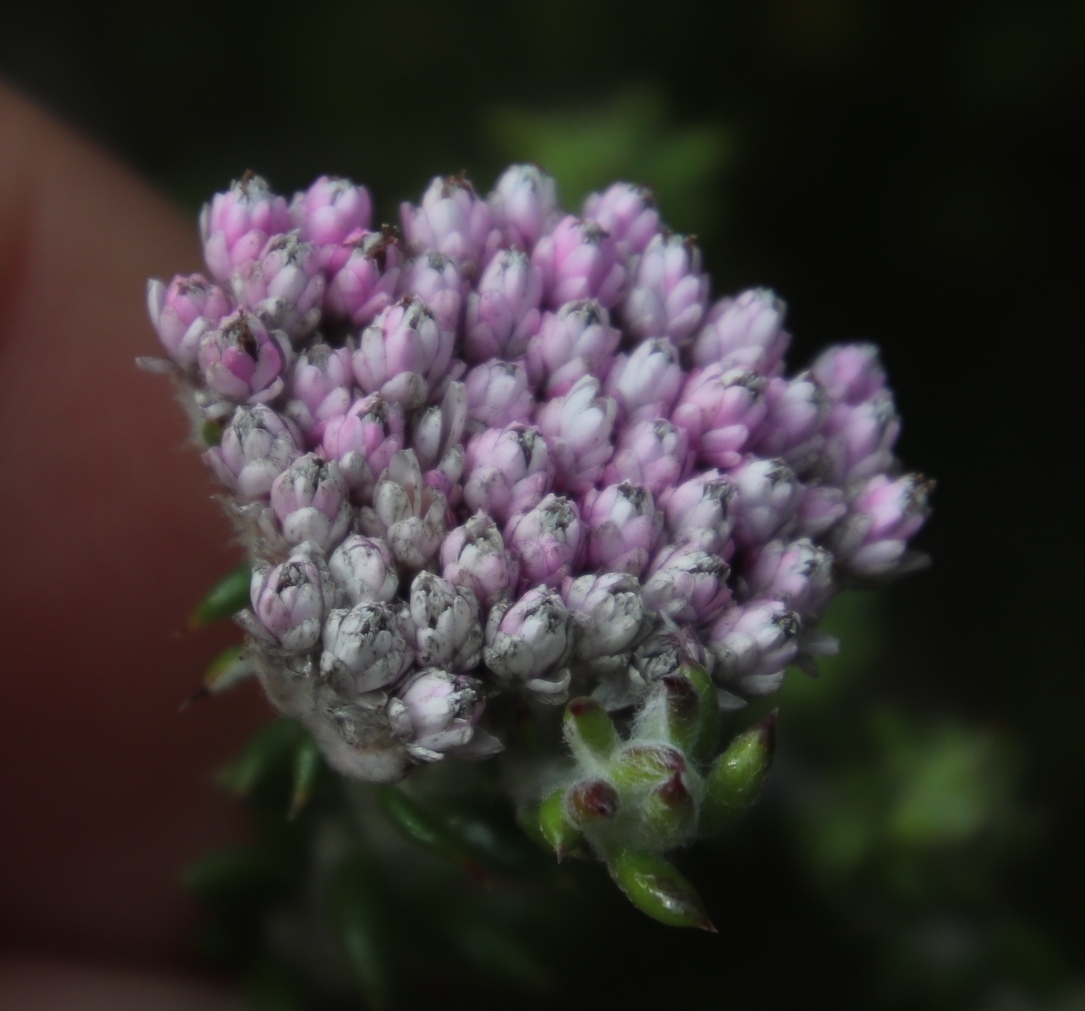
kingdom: Plantae
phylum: Tracheophyta
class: Magnoliopsida
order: Asterales
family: Asteraceae
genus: Metalasia
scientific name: Metalasia cymbifolia
